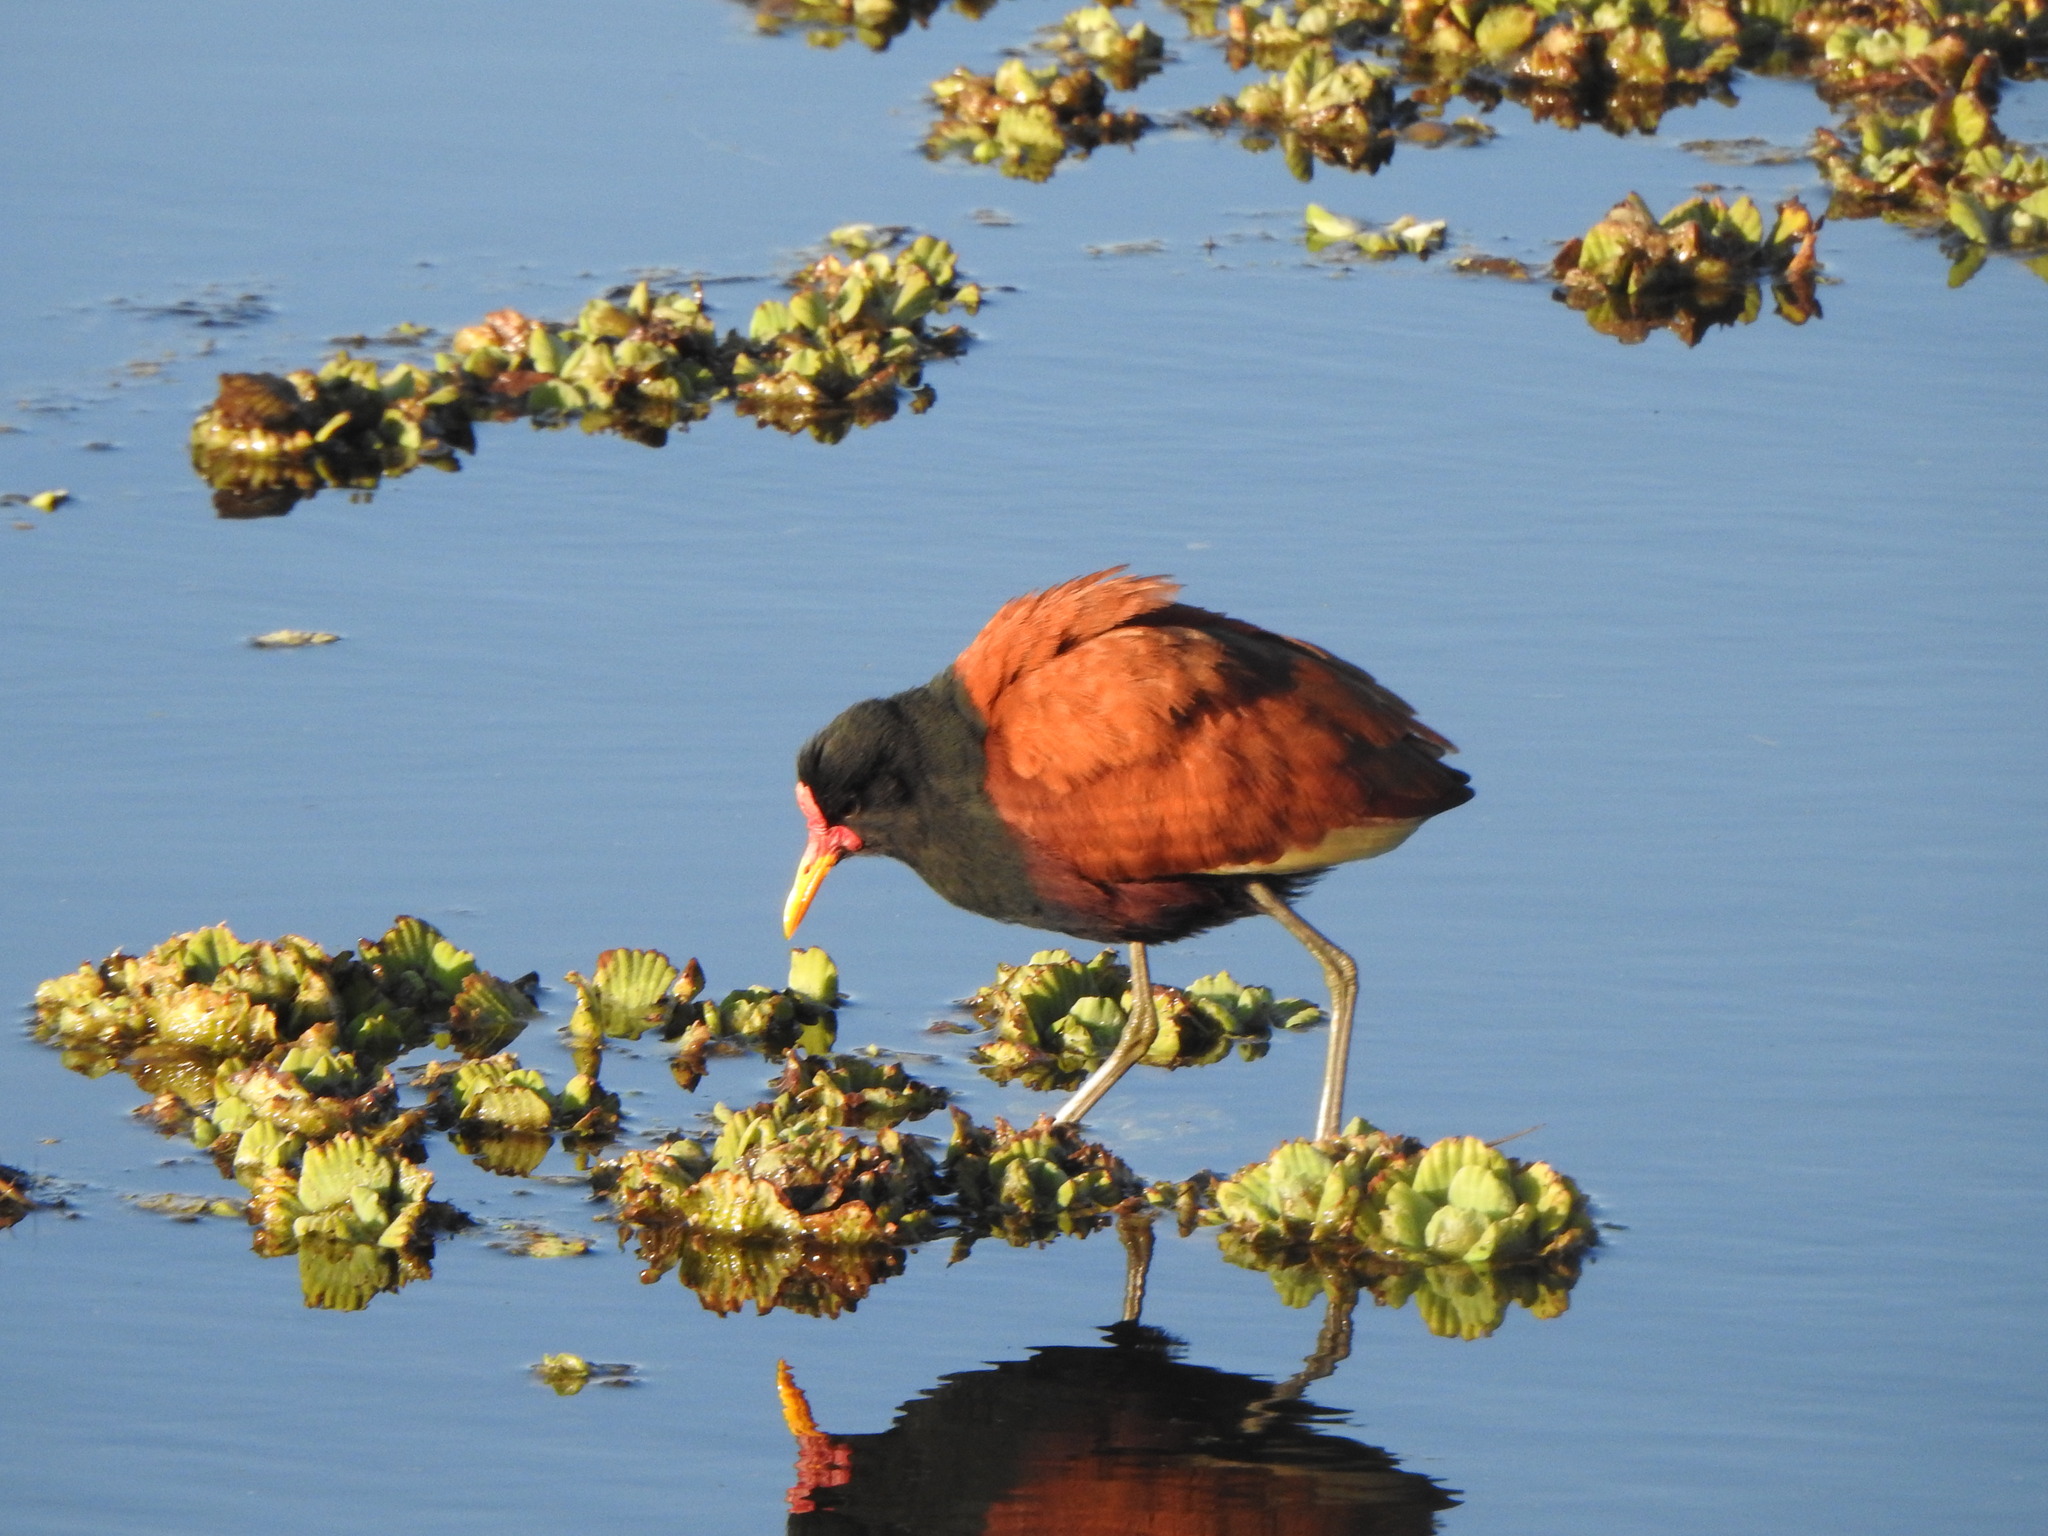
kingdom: Animalia
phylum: Chordata
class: Aves
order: Charadriiformes
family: Jacanidae
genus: Jacana
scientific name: Jacana jacana
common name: Wattled jacana
